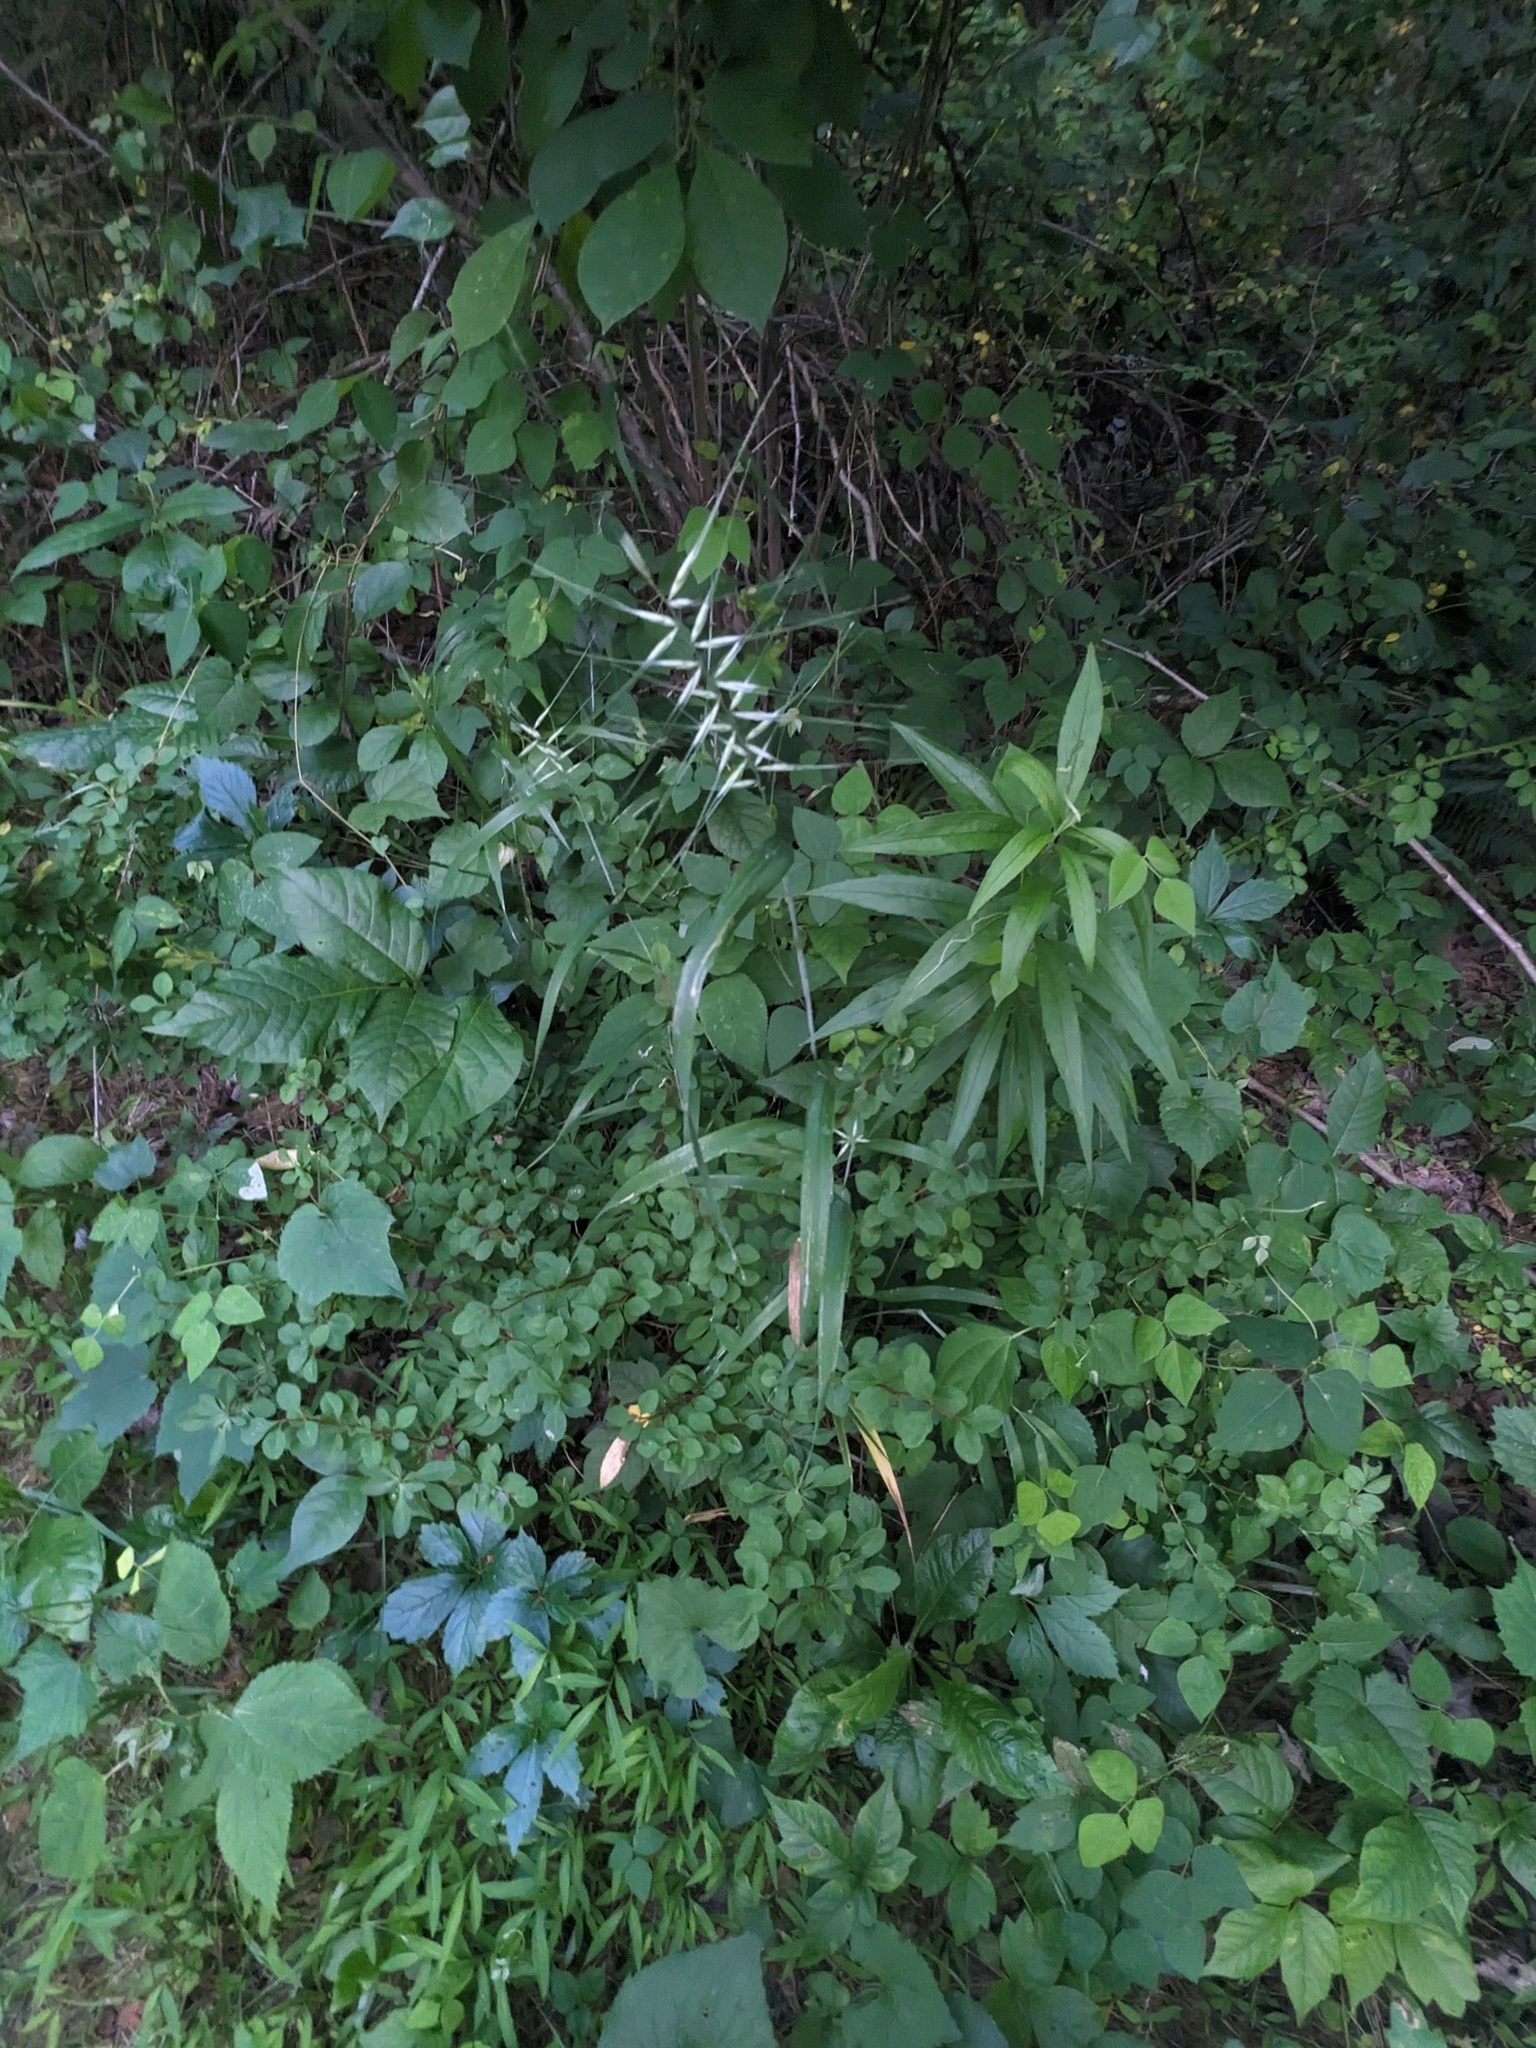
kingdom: Plantae
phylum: Tracheophyta
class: Liliopsida
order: Poales
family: Poaceae
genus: Elymus
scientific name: Elymus hystrix
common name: Bottlebrush grass
